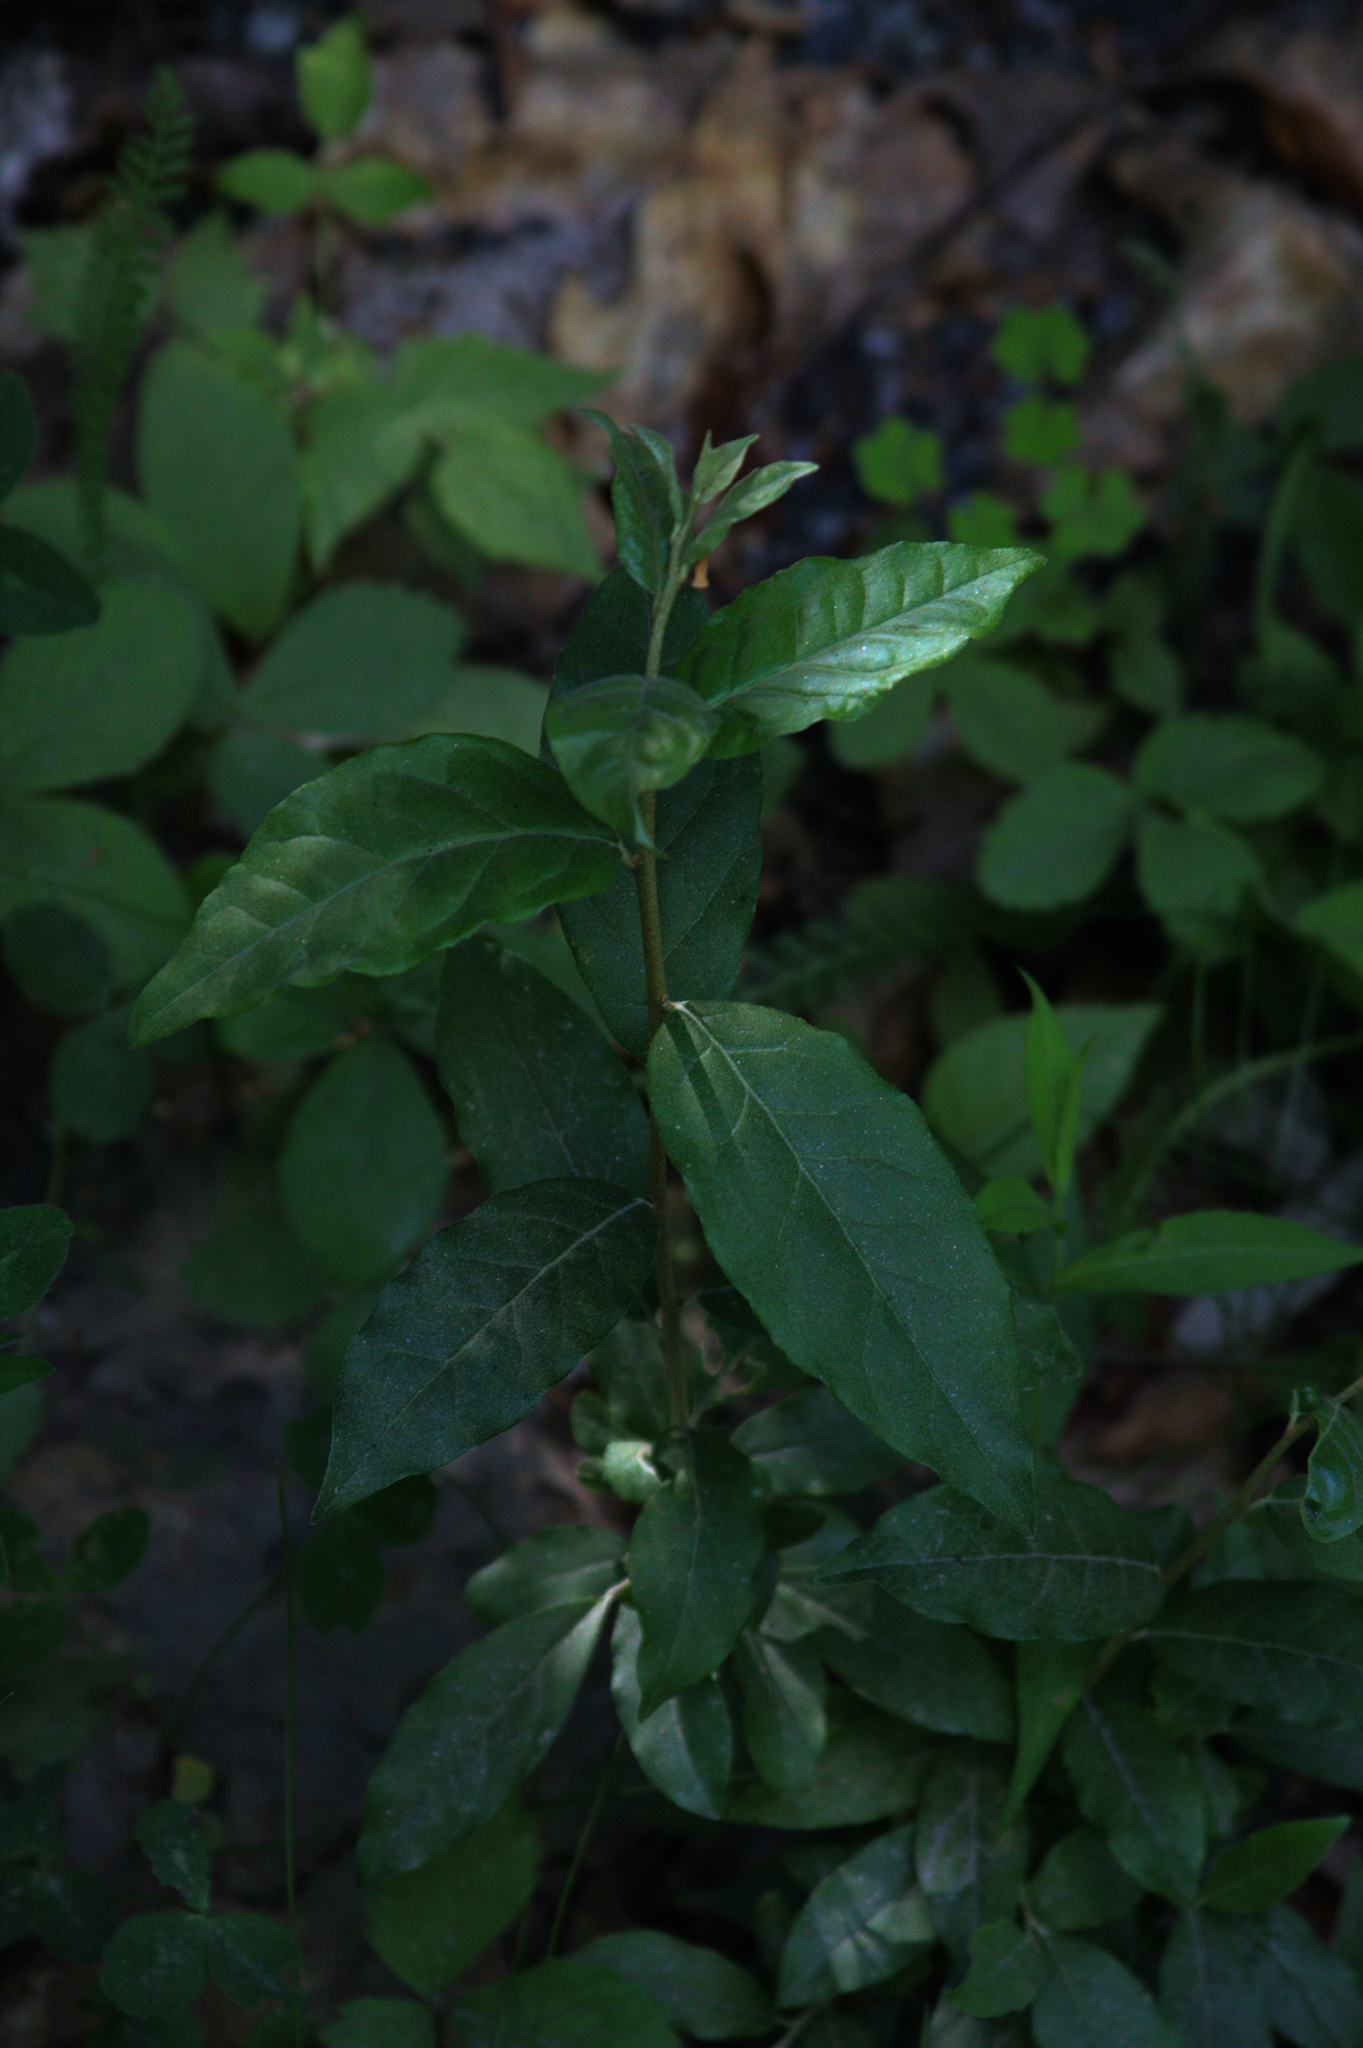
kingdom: Plantae
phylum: Tracheophyta
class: Magnoliopsida
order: Rosales
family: Elaeagnaceae
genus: Elaeagnus
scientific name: Elaeagnus umbellata
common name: Autumn olive
